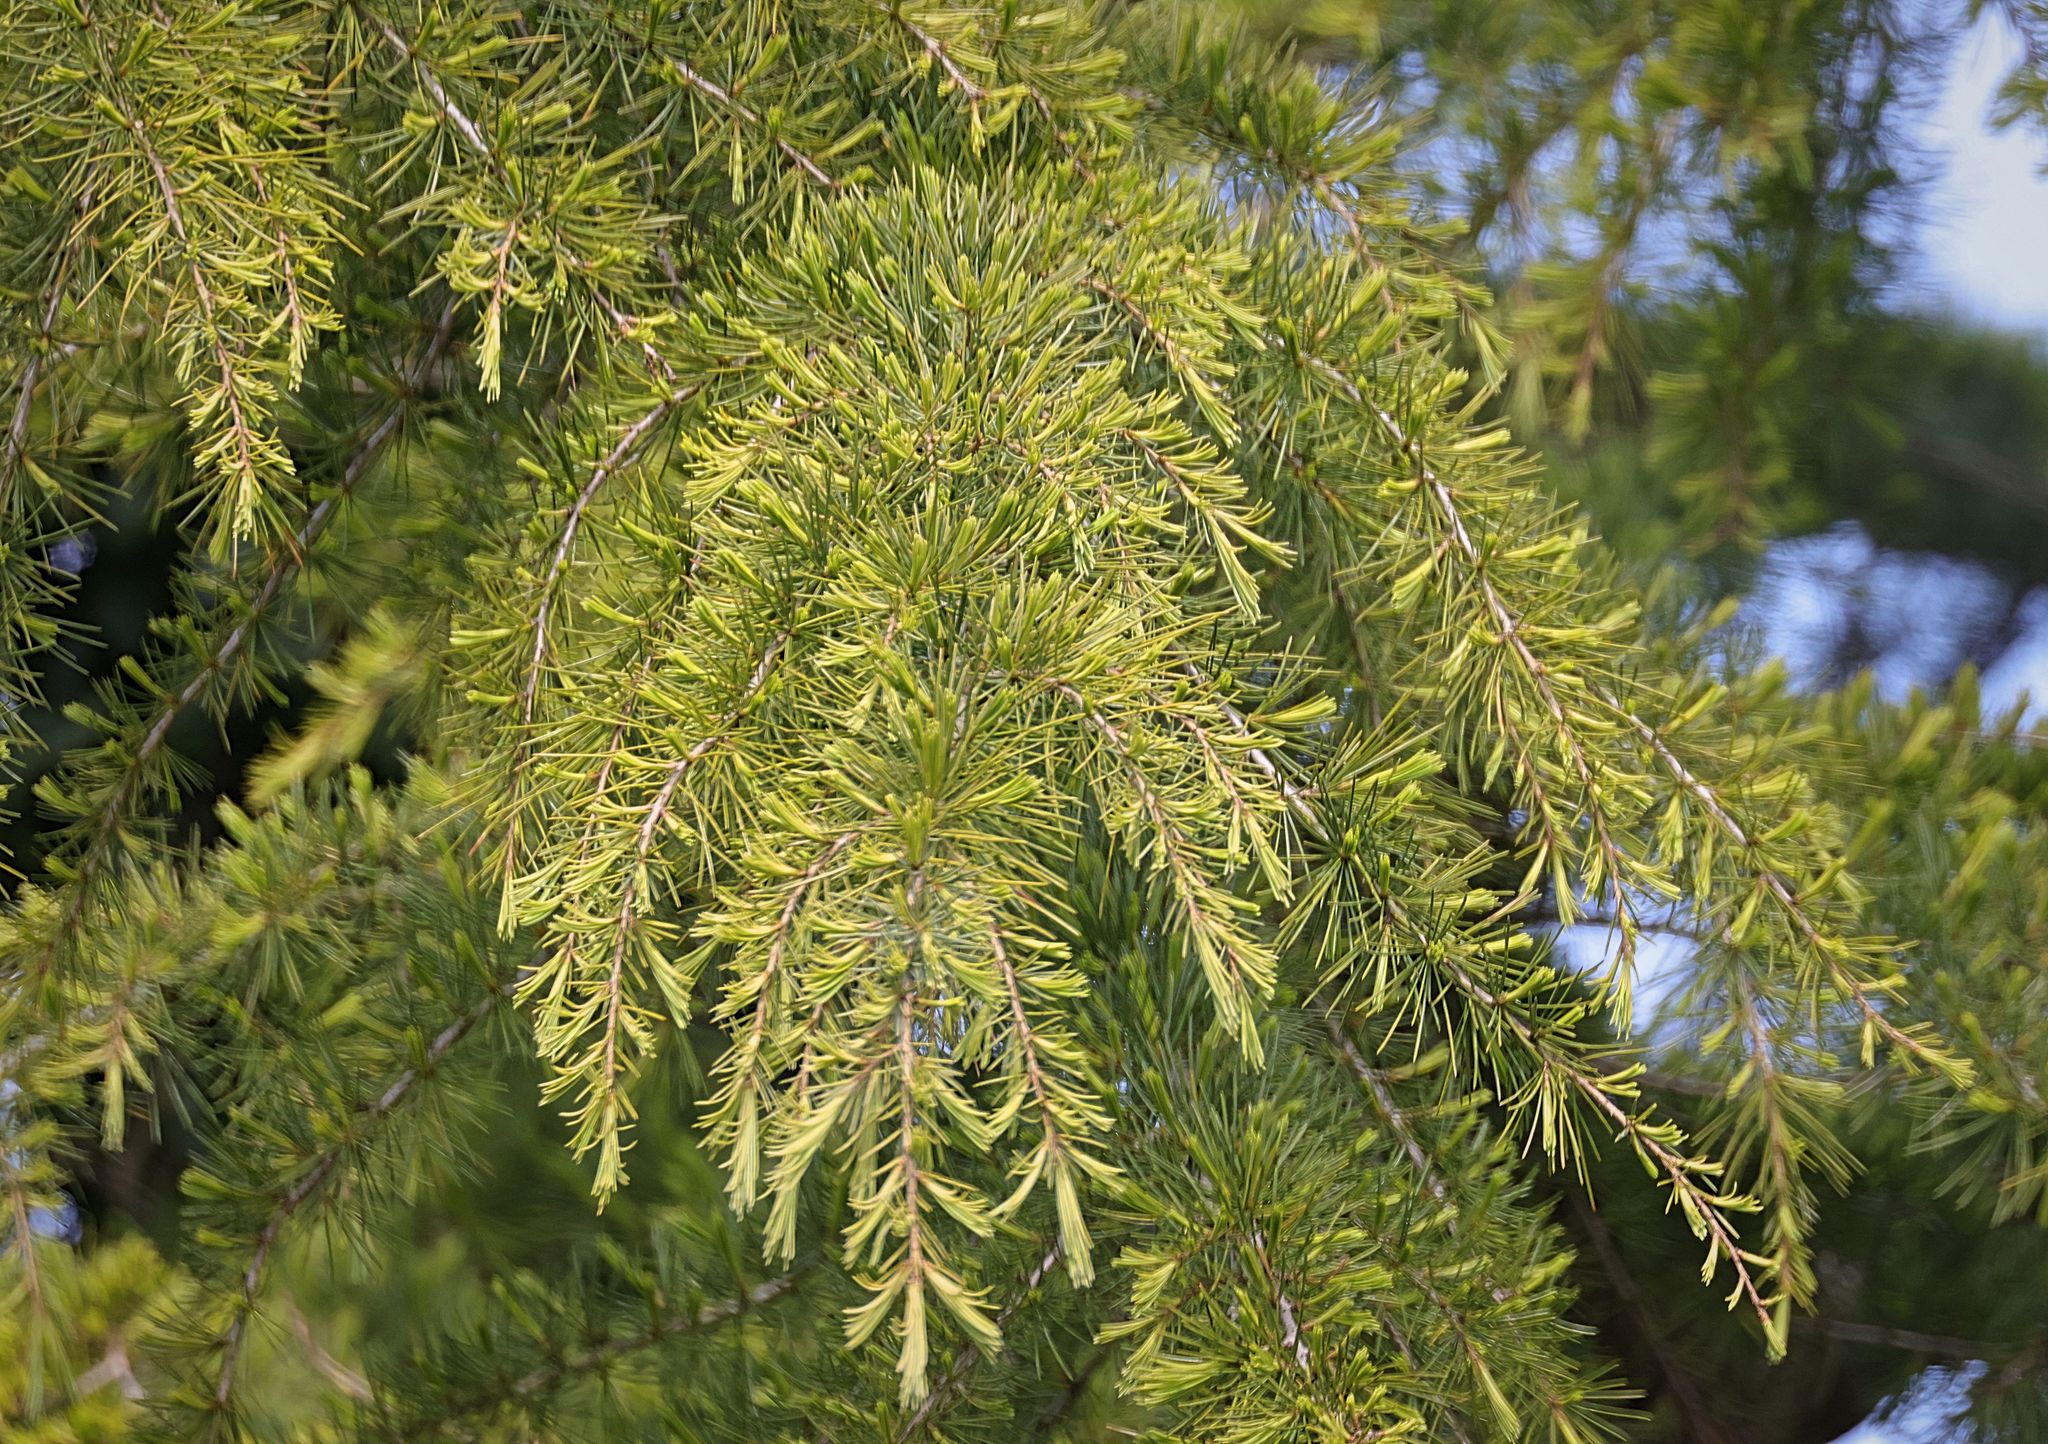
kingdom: Plantae
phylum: Tracheophyta
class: Pinopsida
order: Pinales
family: Pinaceae
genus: Cedrus
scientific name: Cedrus deodara
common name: Deodar
